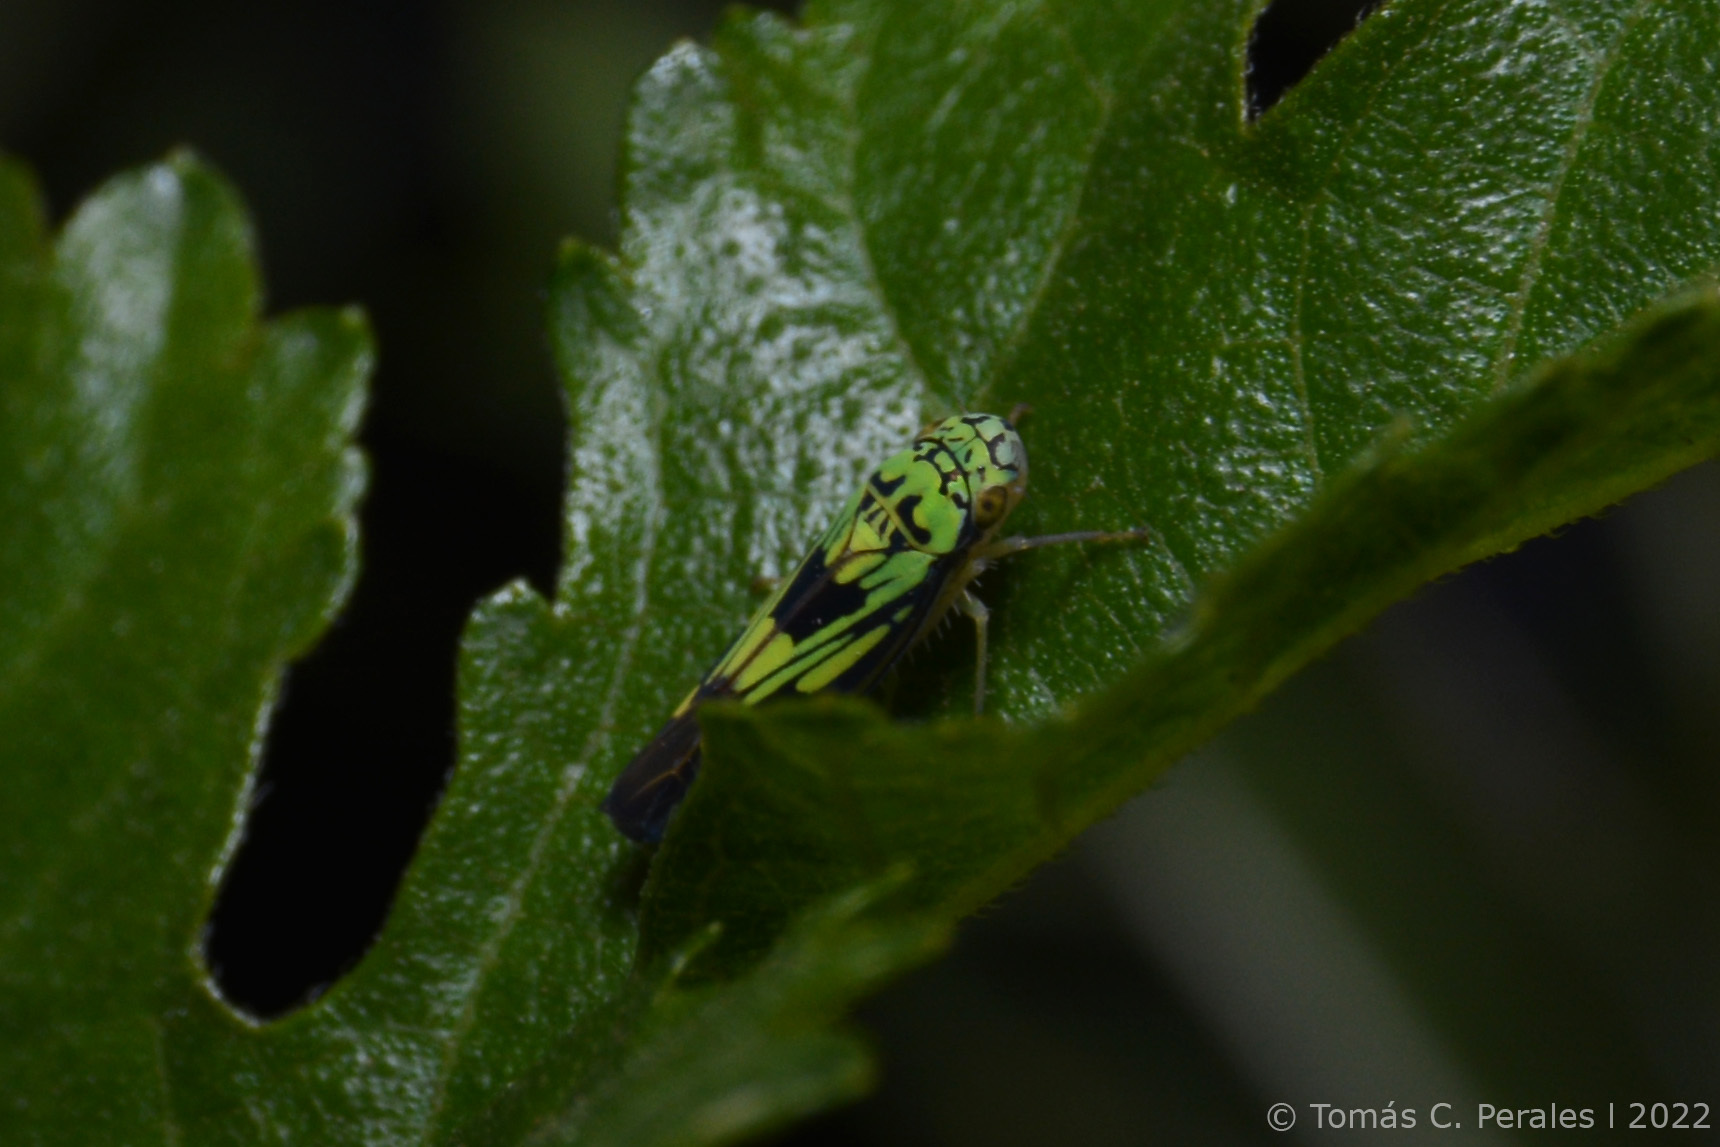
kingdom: Animalia
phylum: Arthropoda
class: Insecta
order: Hemiptera
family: Cicadellidae
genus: Scopogonalia
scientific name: Scopogonalia penicula
